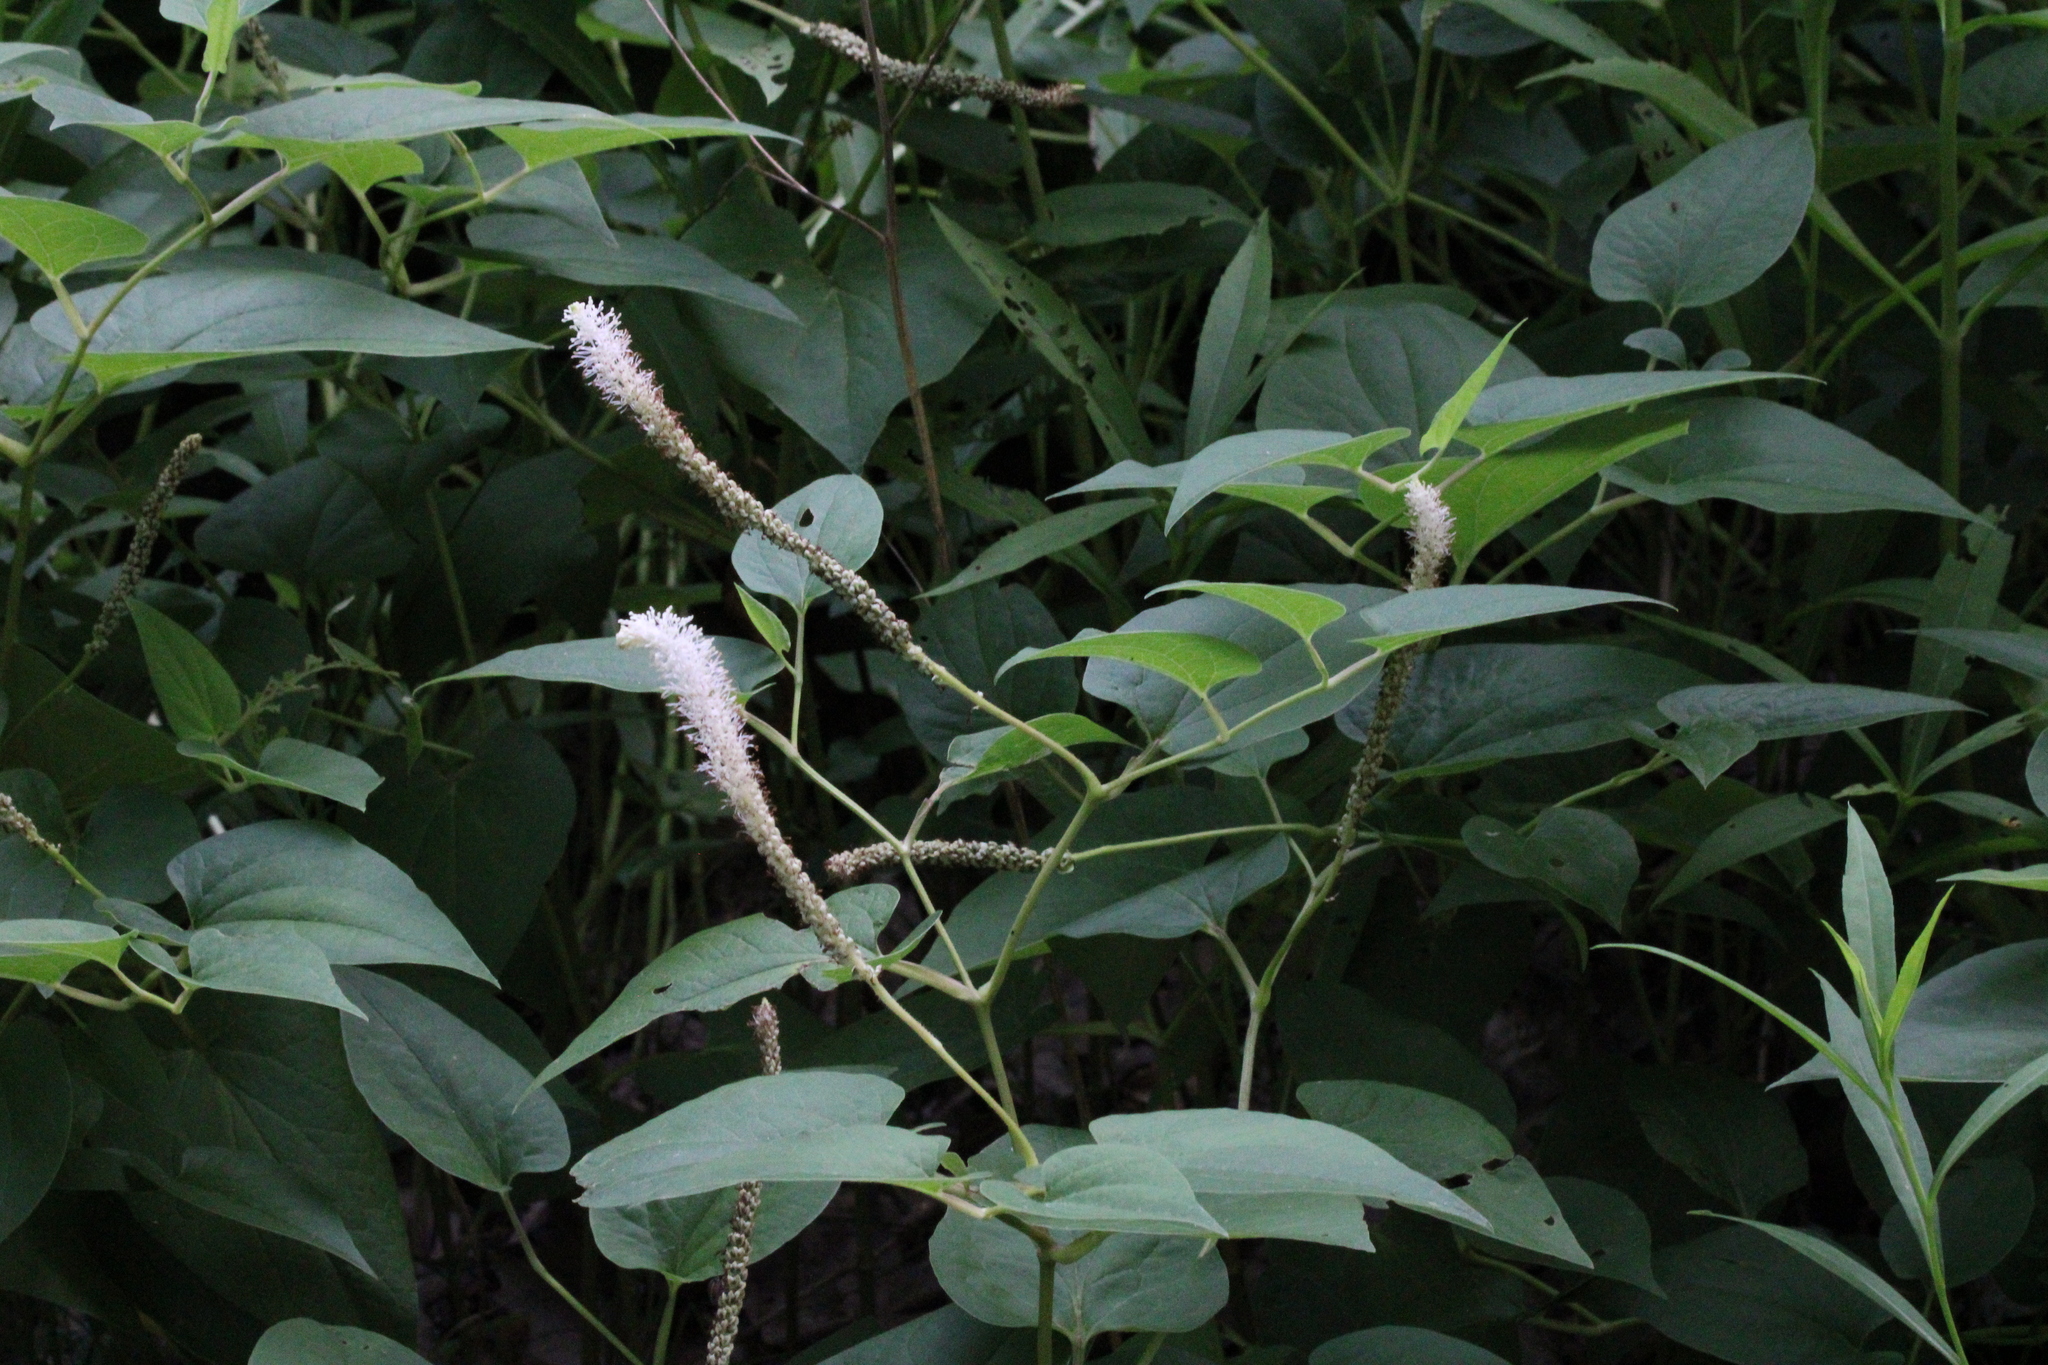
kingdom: Plantae
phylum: Tracheophyta
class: Magnoliopsida
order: Piperales
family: Saururaceae
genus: Saururus
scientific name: Saururus cernuus
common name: Lizard's-tail
